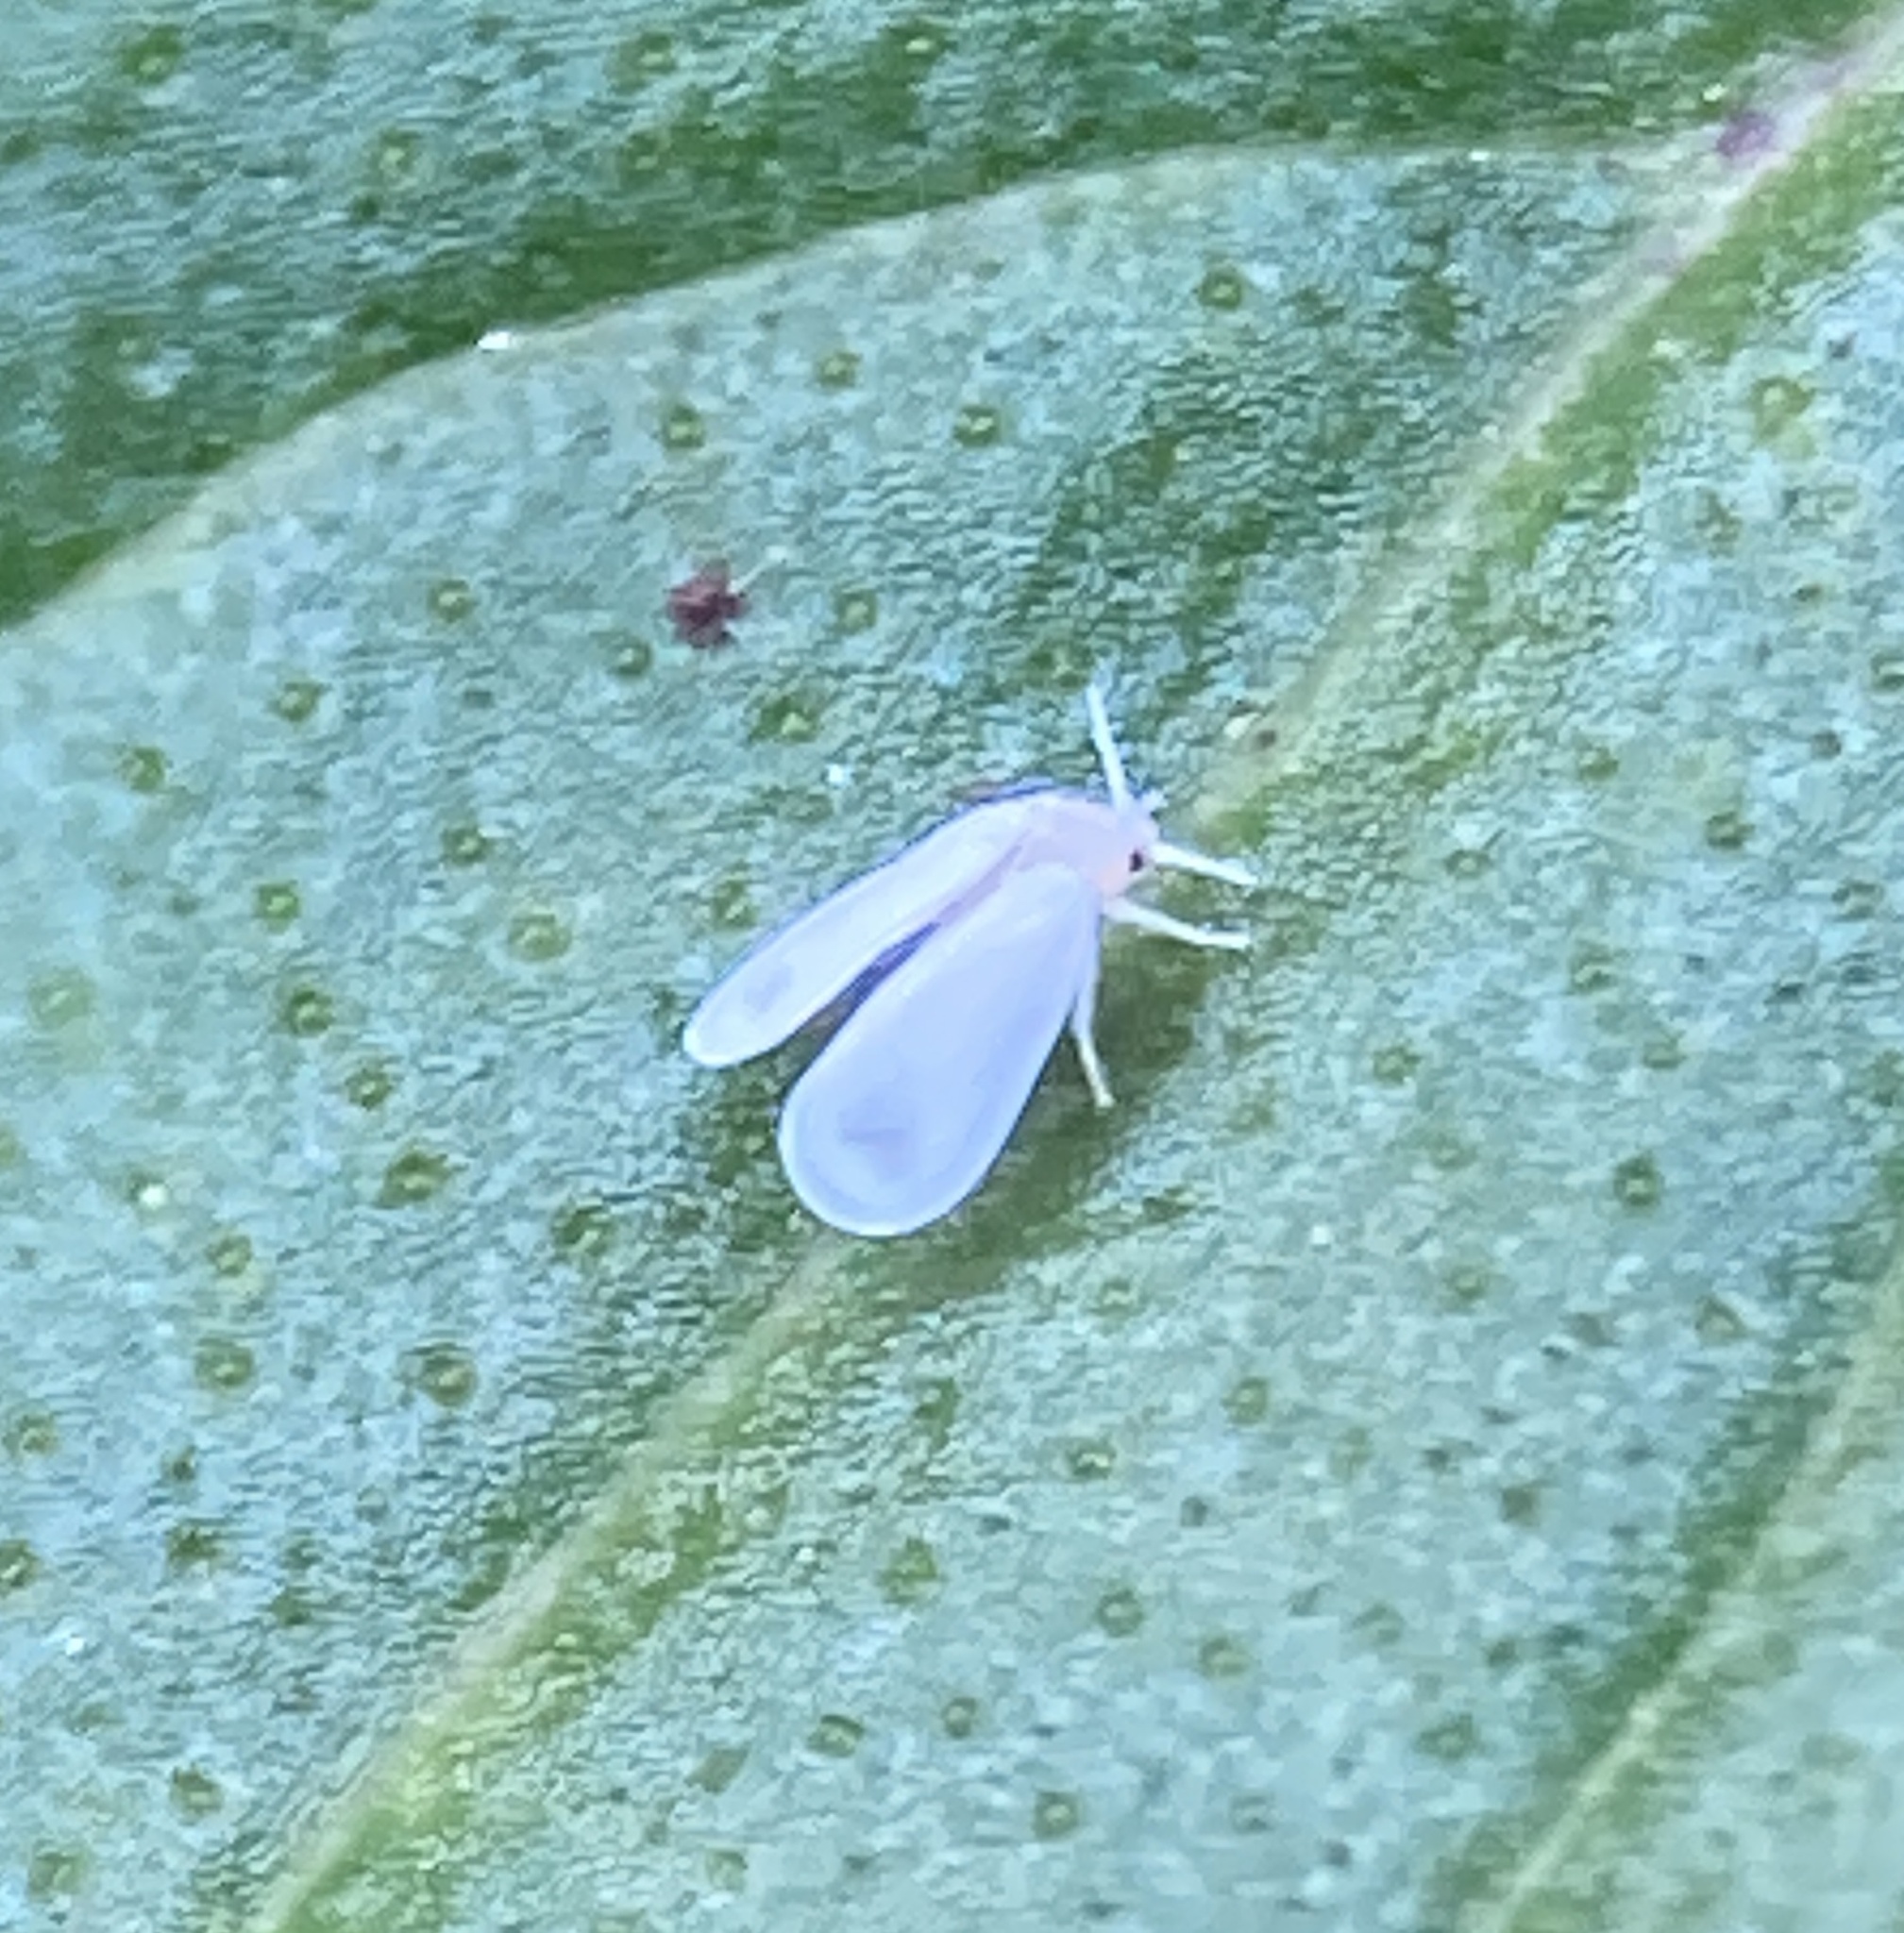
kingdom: Animalia
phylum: Arthropoda
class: Insecta
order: Hemiptera
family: Aleyrodidae
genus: Trialeurodes
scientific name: Trialeurodes vaporariorum
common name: Greenhouse white fly
